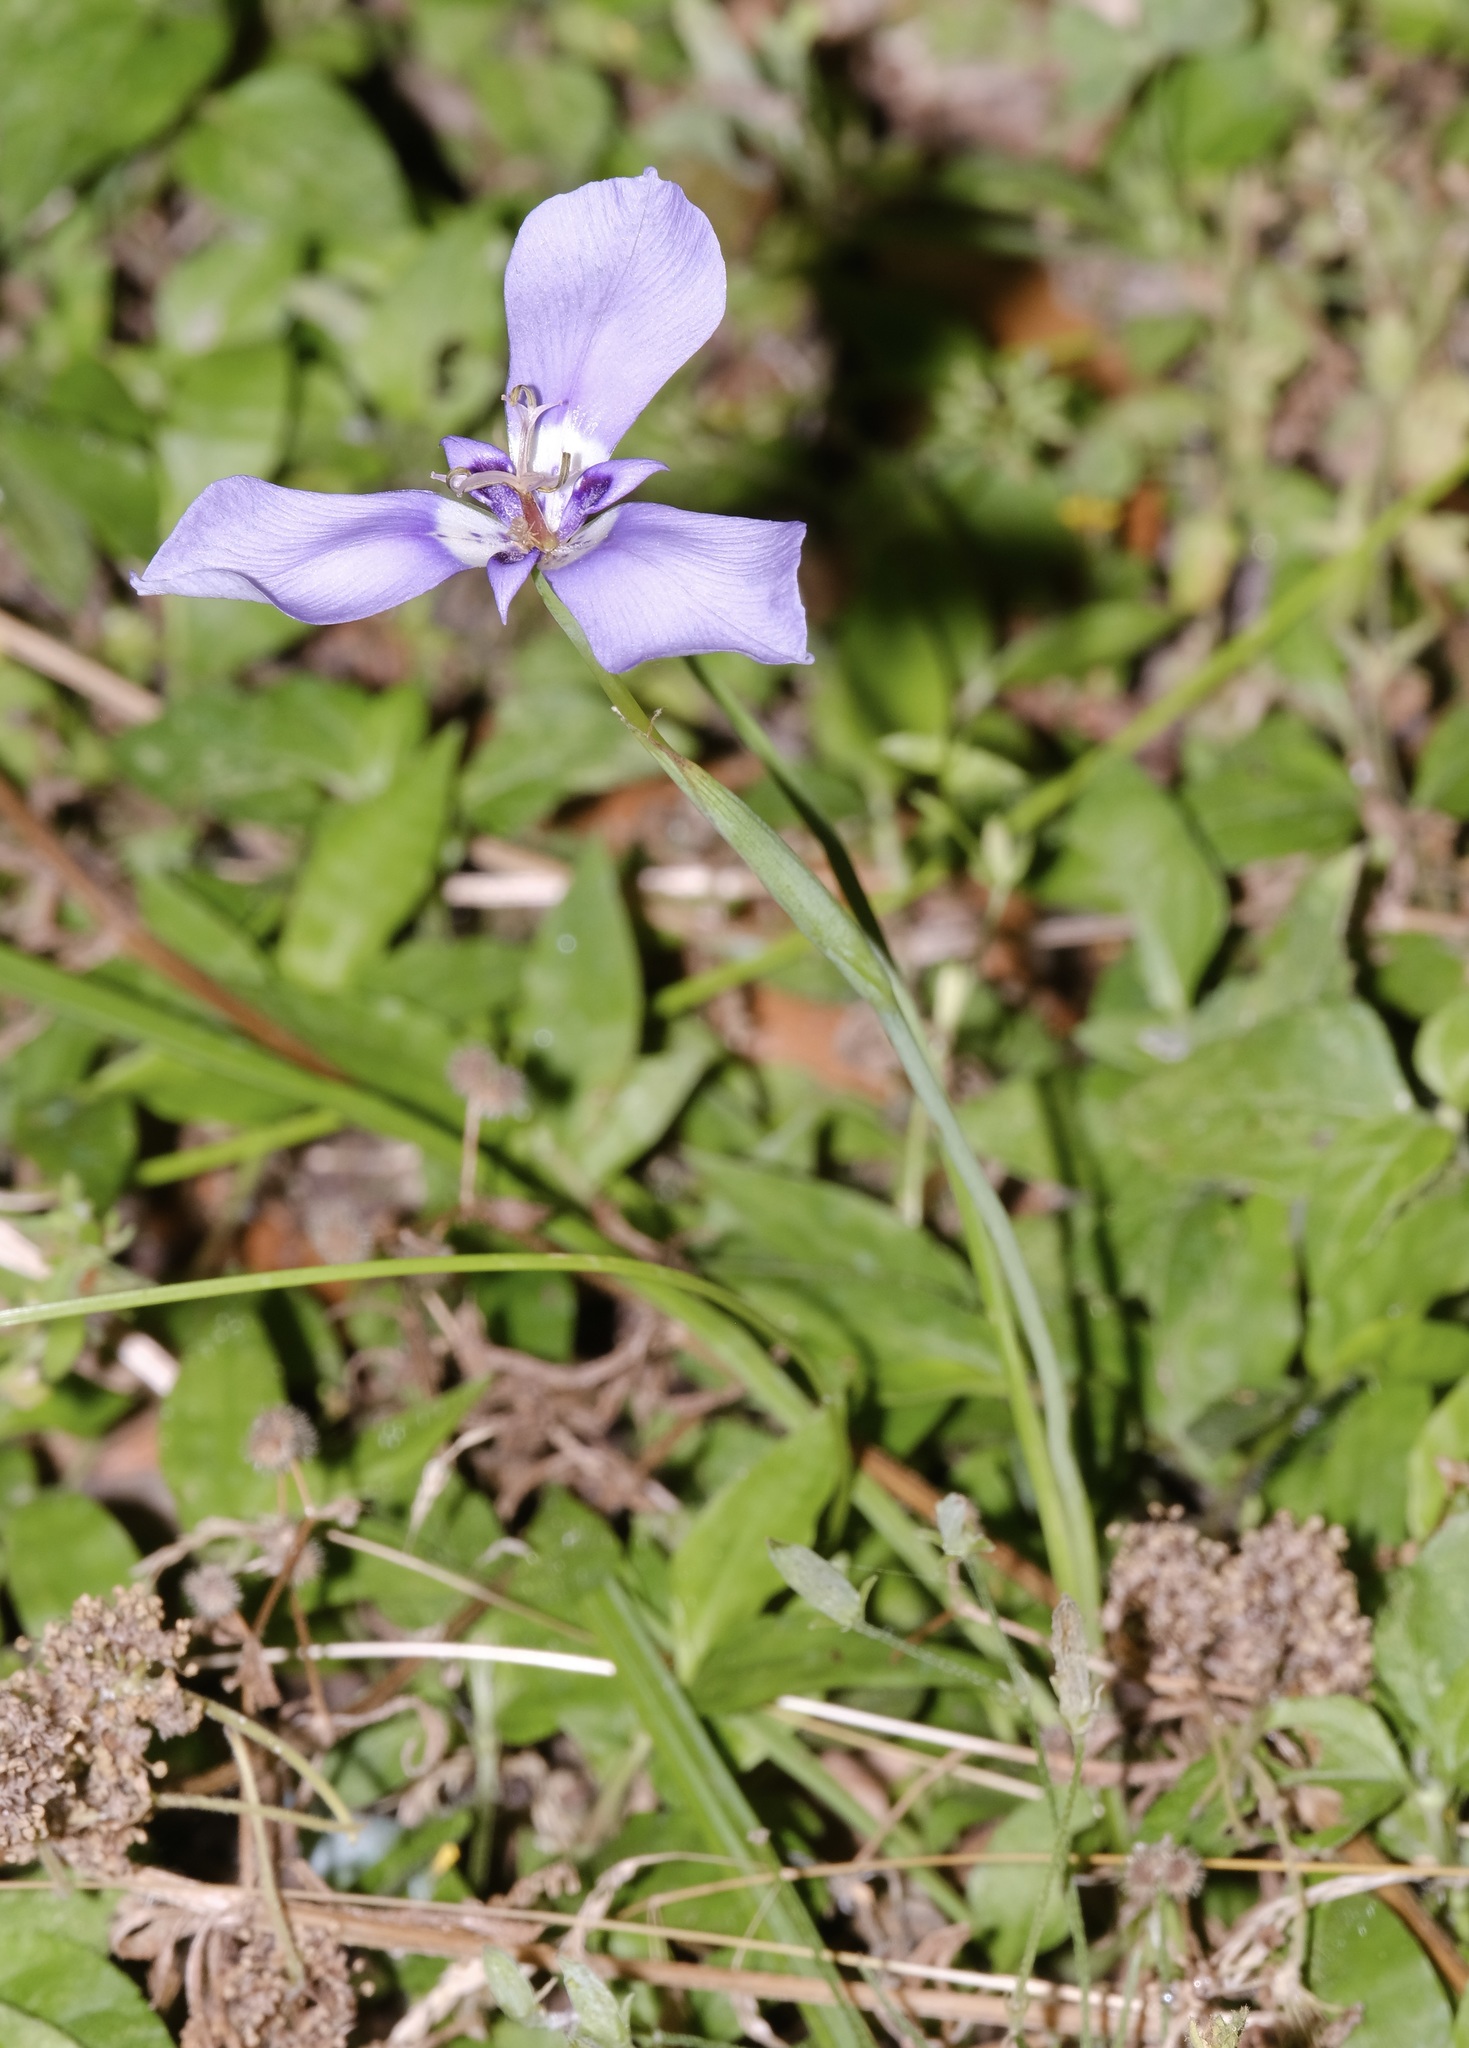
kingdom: Plantae
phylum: Tracheophyta
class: Liliopsida
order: Asparagales
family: Iridaceae
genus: Herbertia
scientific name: Herbertia lahue
